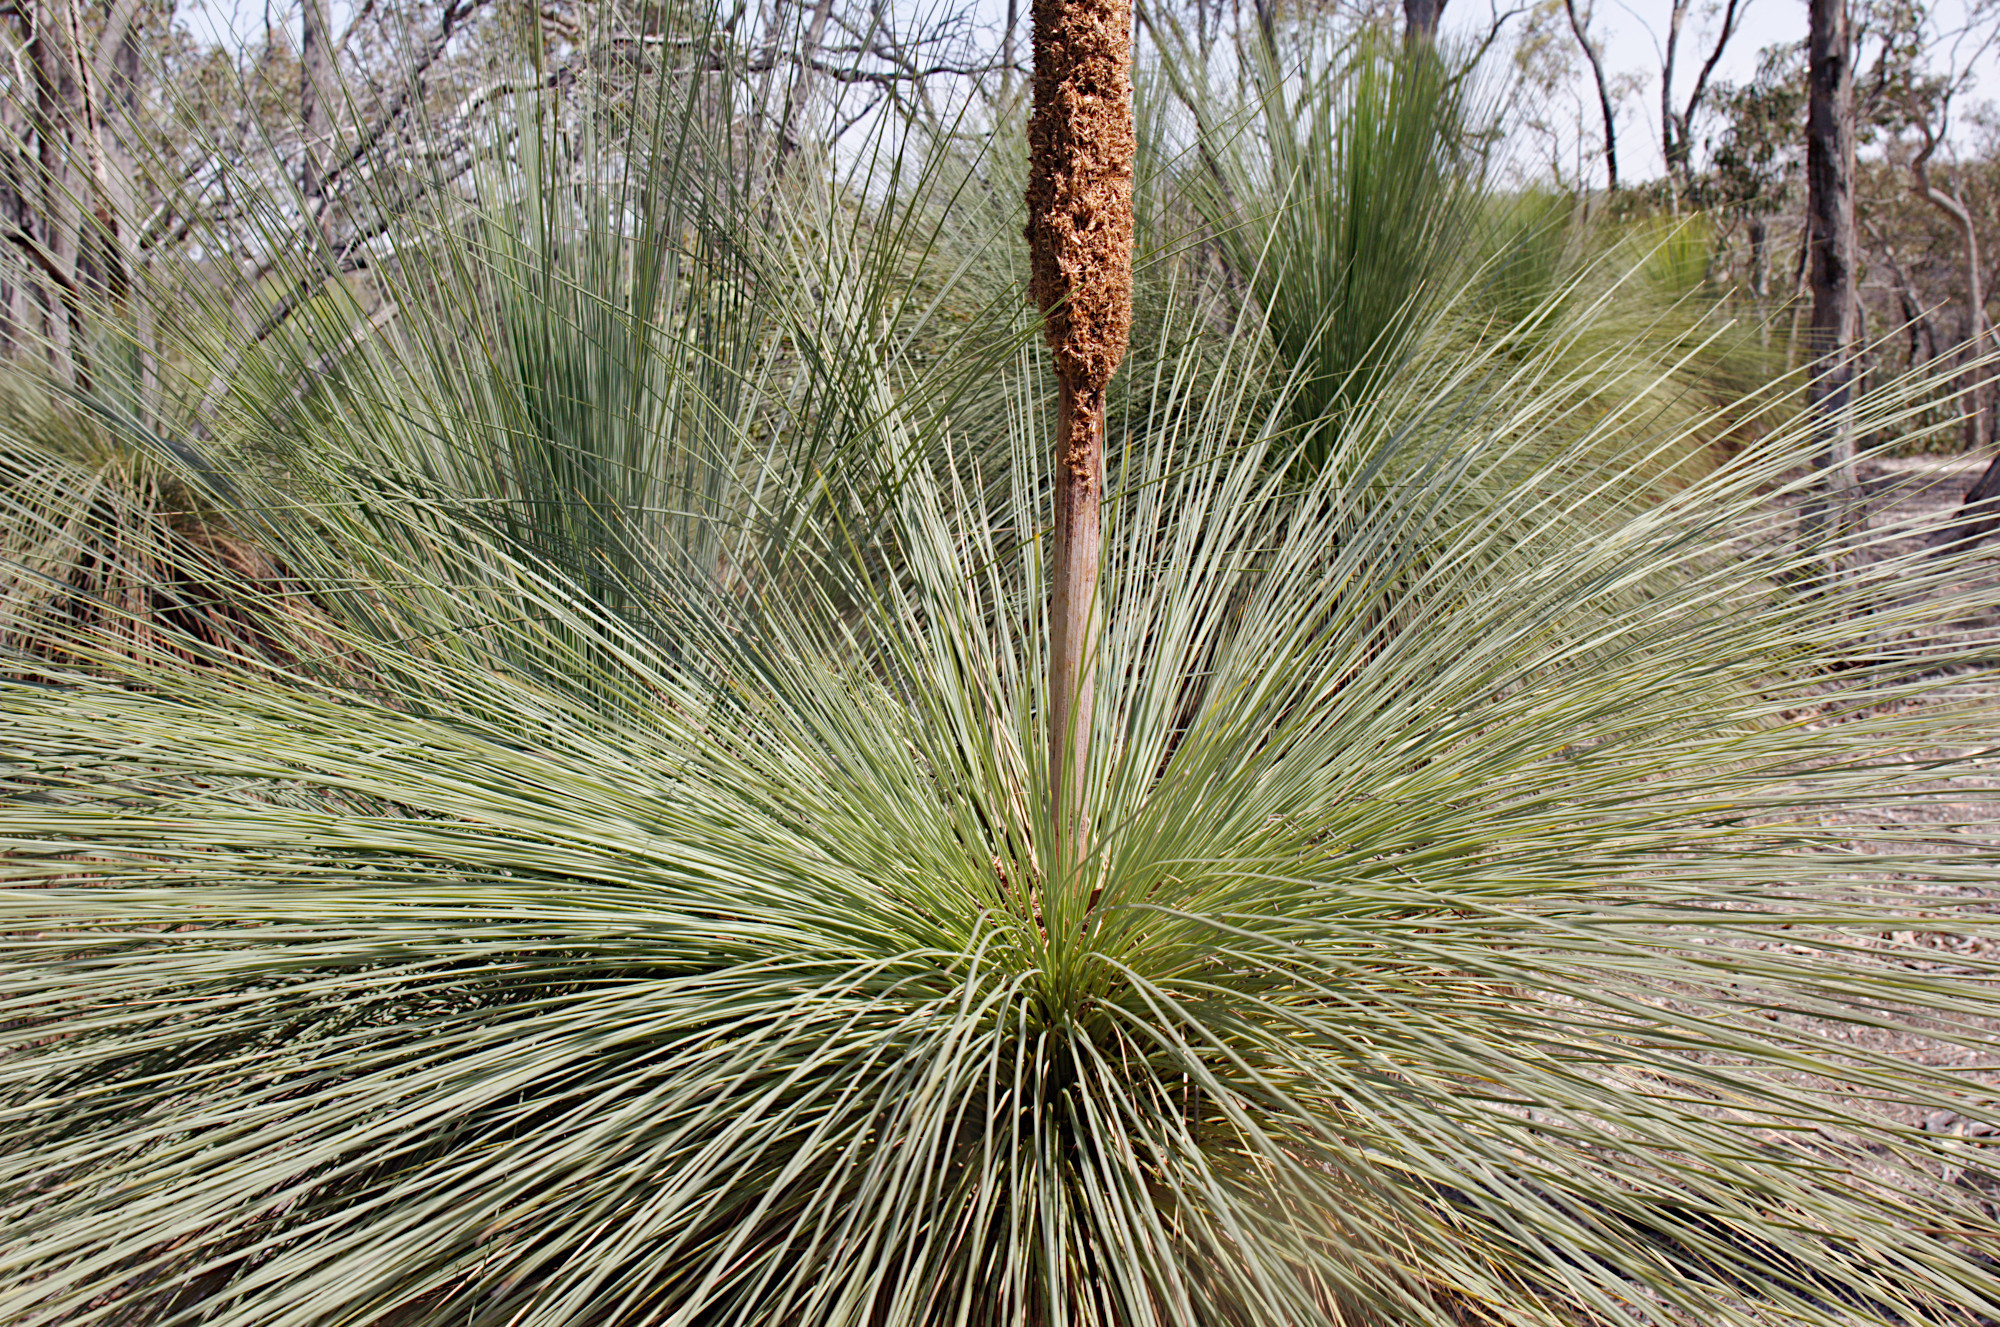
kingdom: Plantae
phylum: Tracheophyta
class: Liliopsida
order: Asparagales
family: Asphodelaceae
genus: Xanthorrhoea
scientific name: Xanthorrhoea australis
